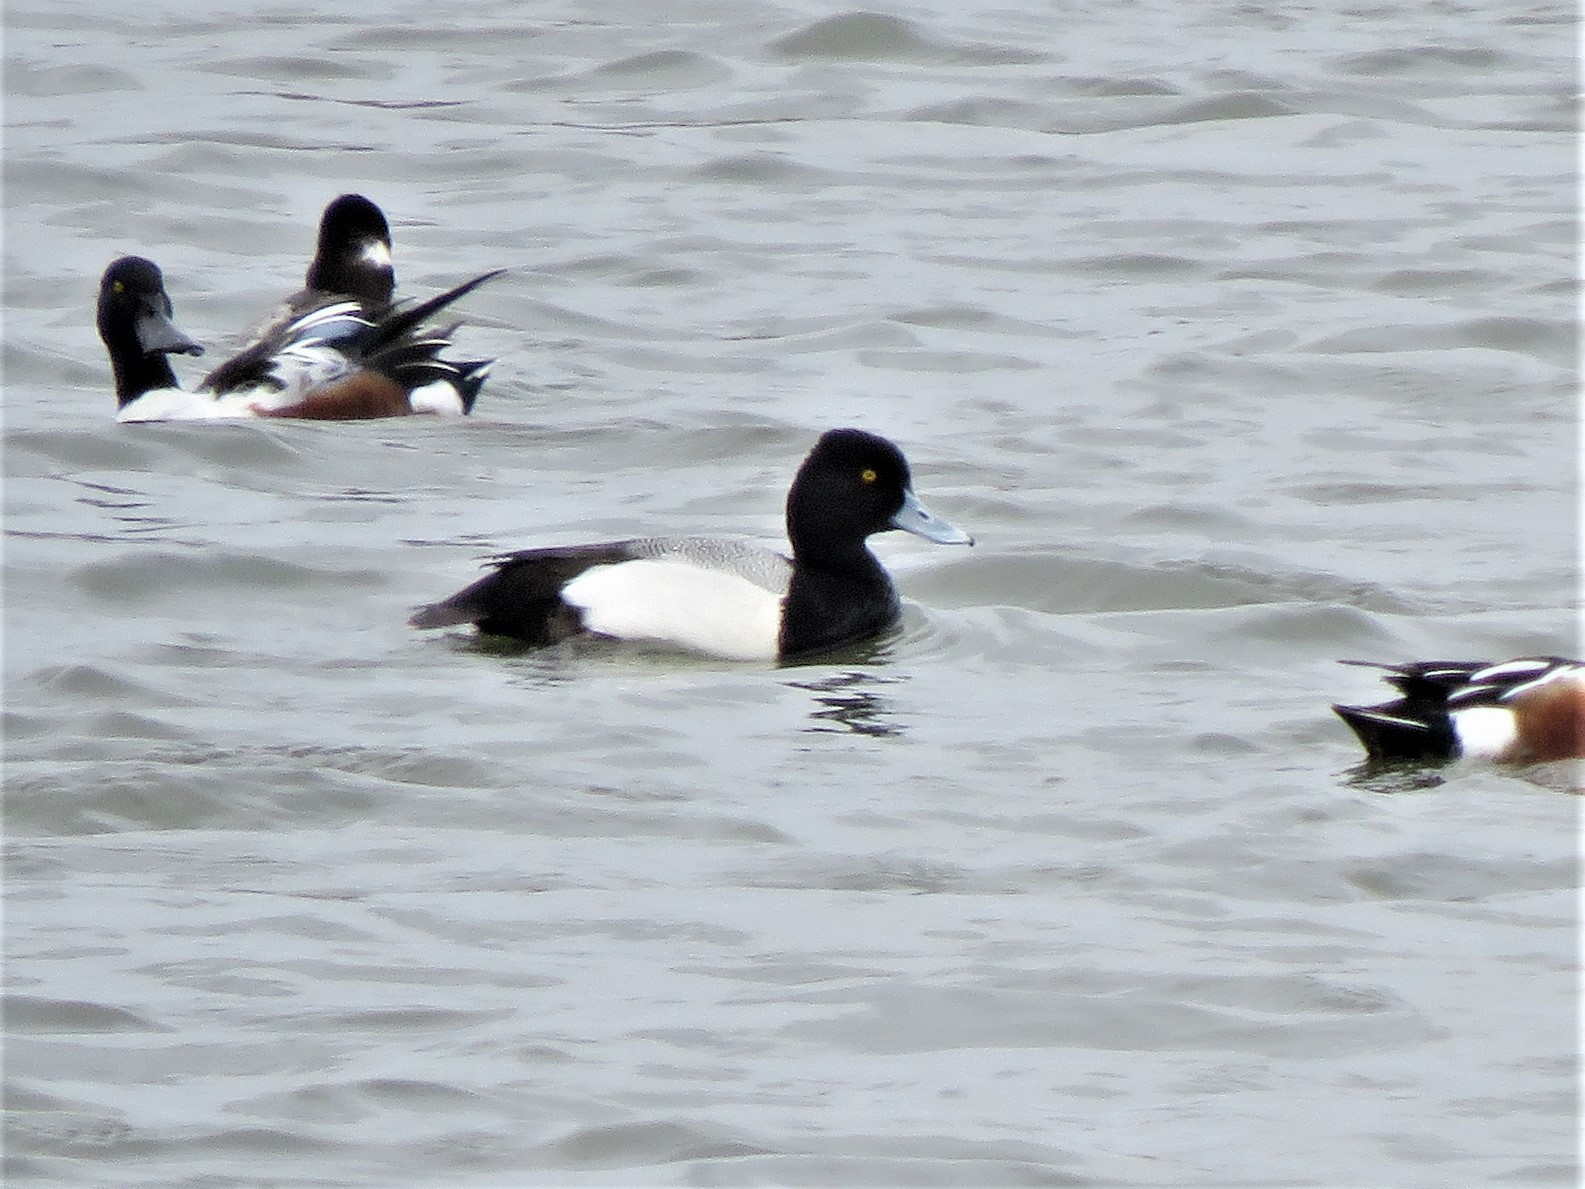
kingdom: Animalia
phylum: Chordata
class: Aves
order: Anseriformes
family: Anatidae
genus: Aythya
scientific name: Aythya affinis
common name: Lesser scaup
